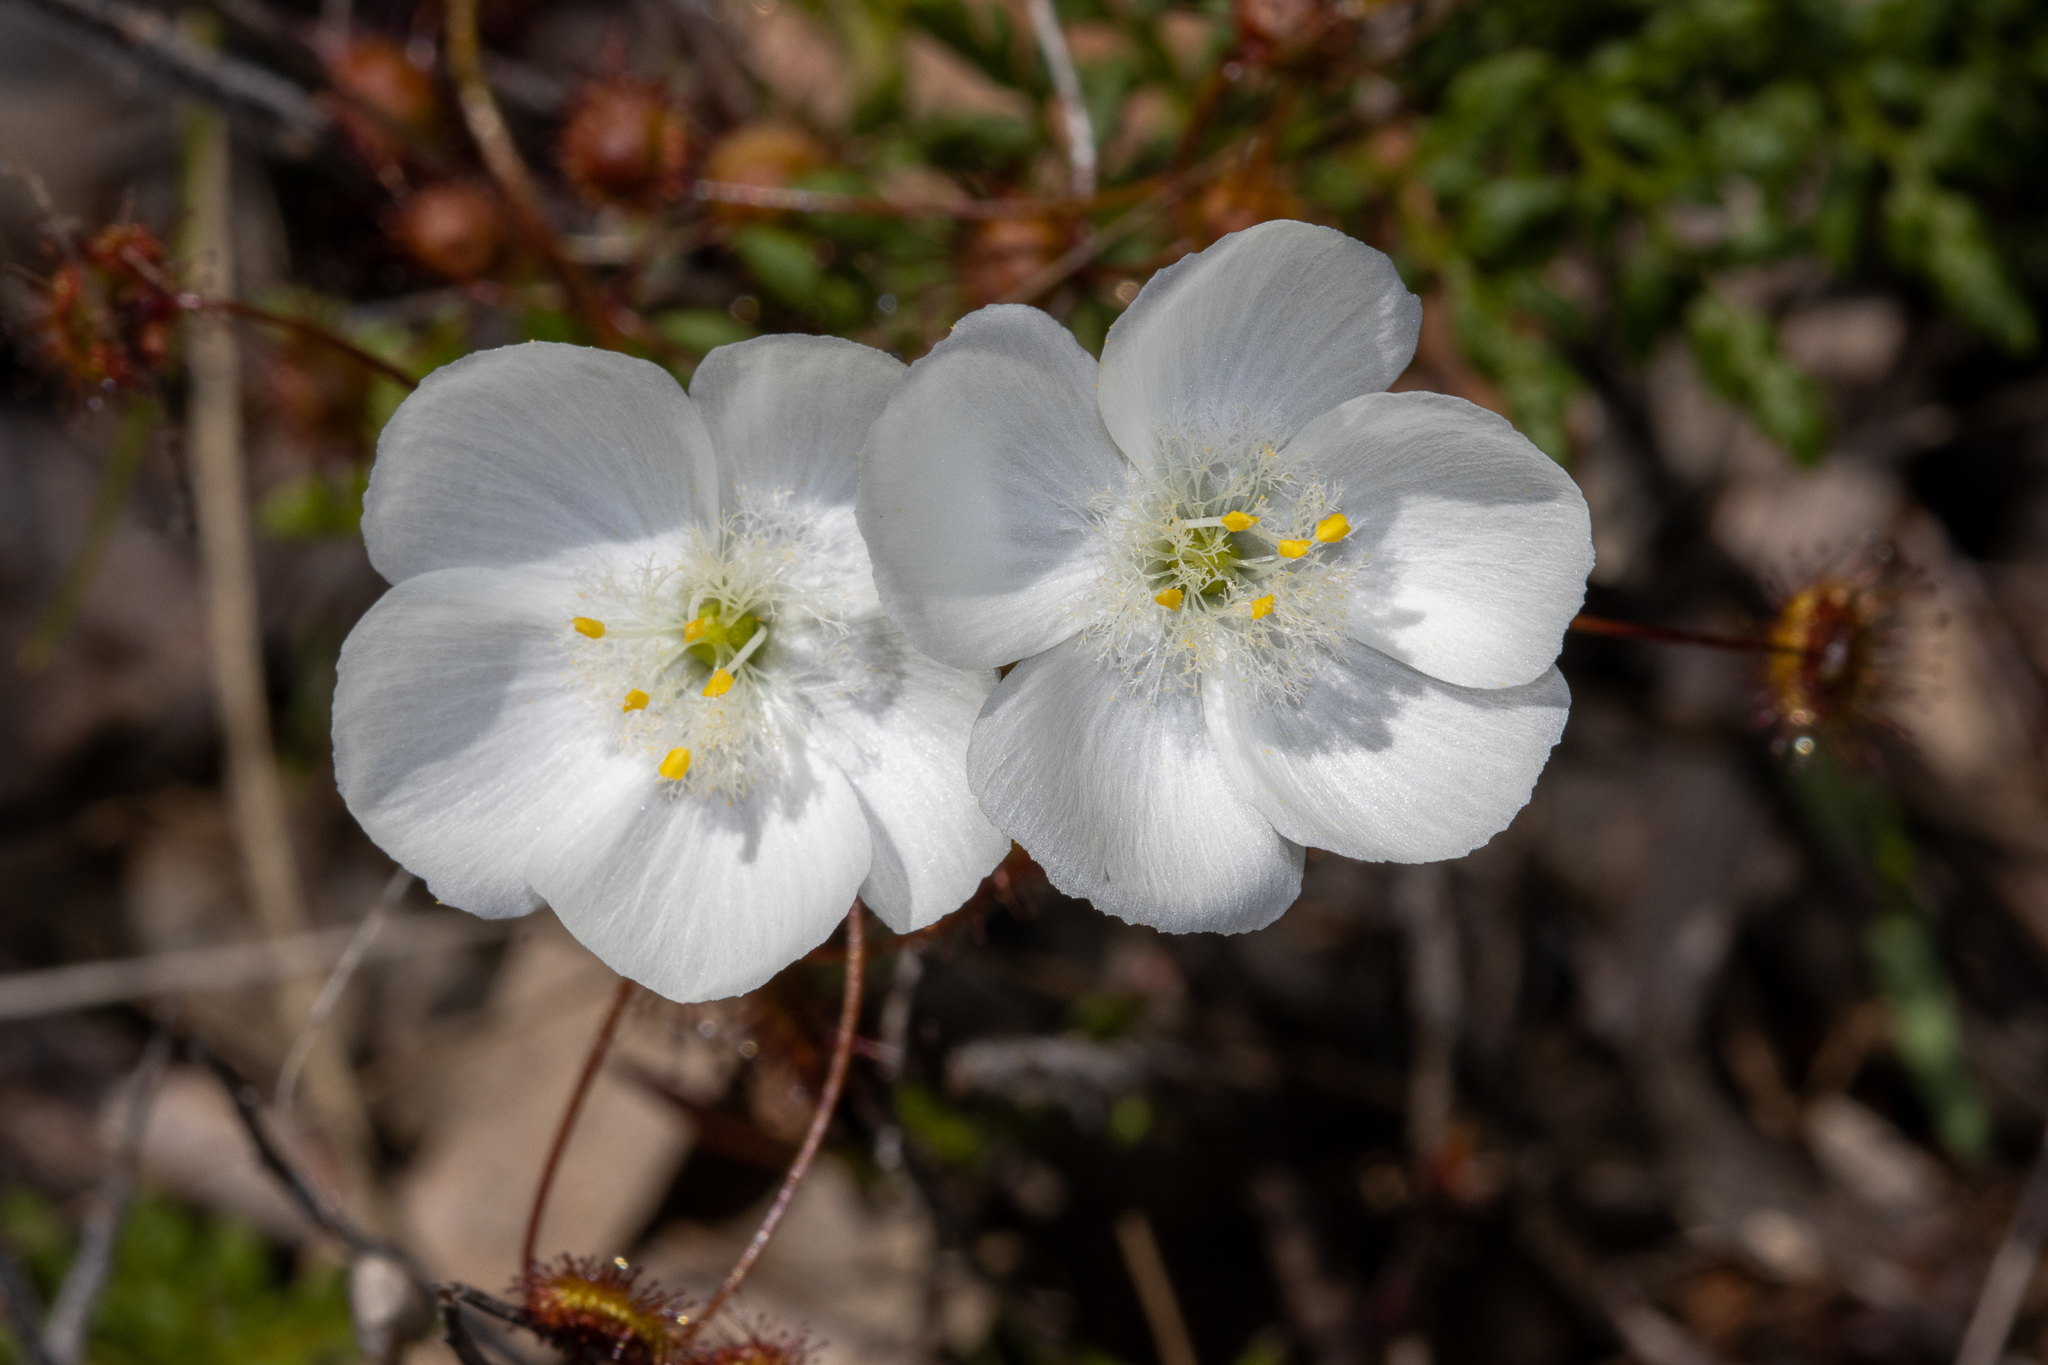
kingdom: Plantae
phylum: Tracheophyta
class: Magnoliopsida
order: Caryophyllales
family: Droseraceae
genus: Drosera
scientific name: Drosera planchonii
